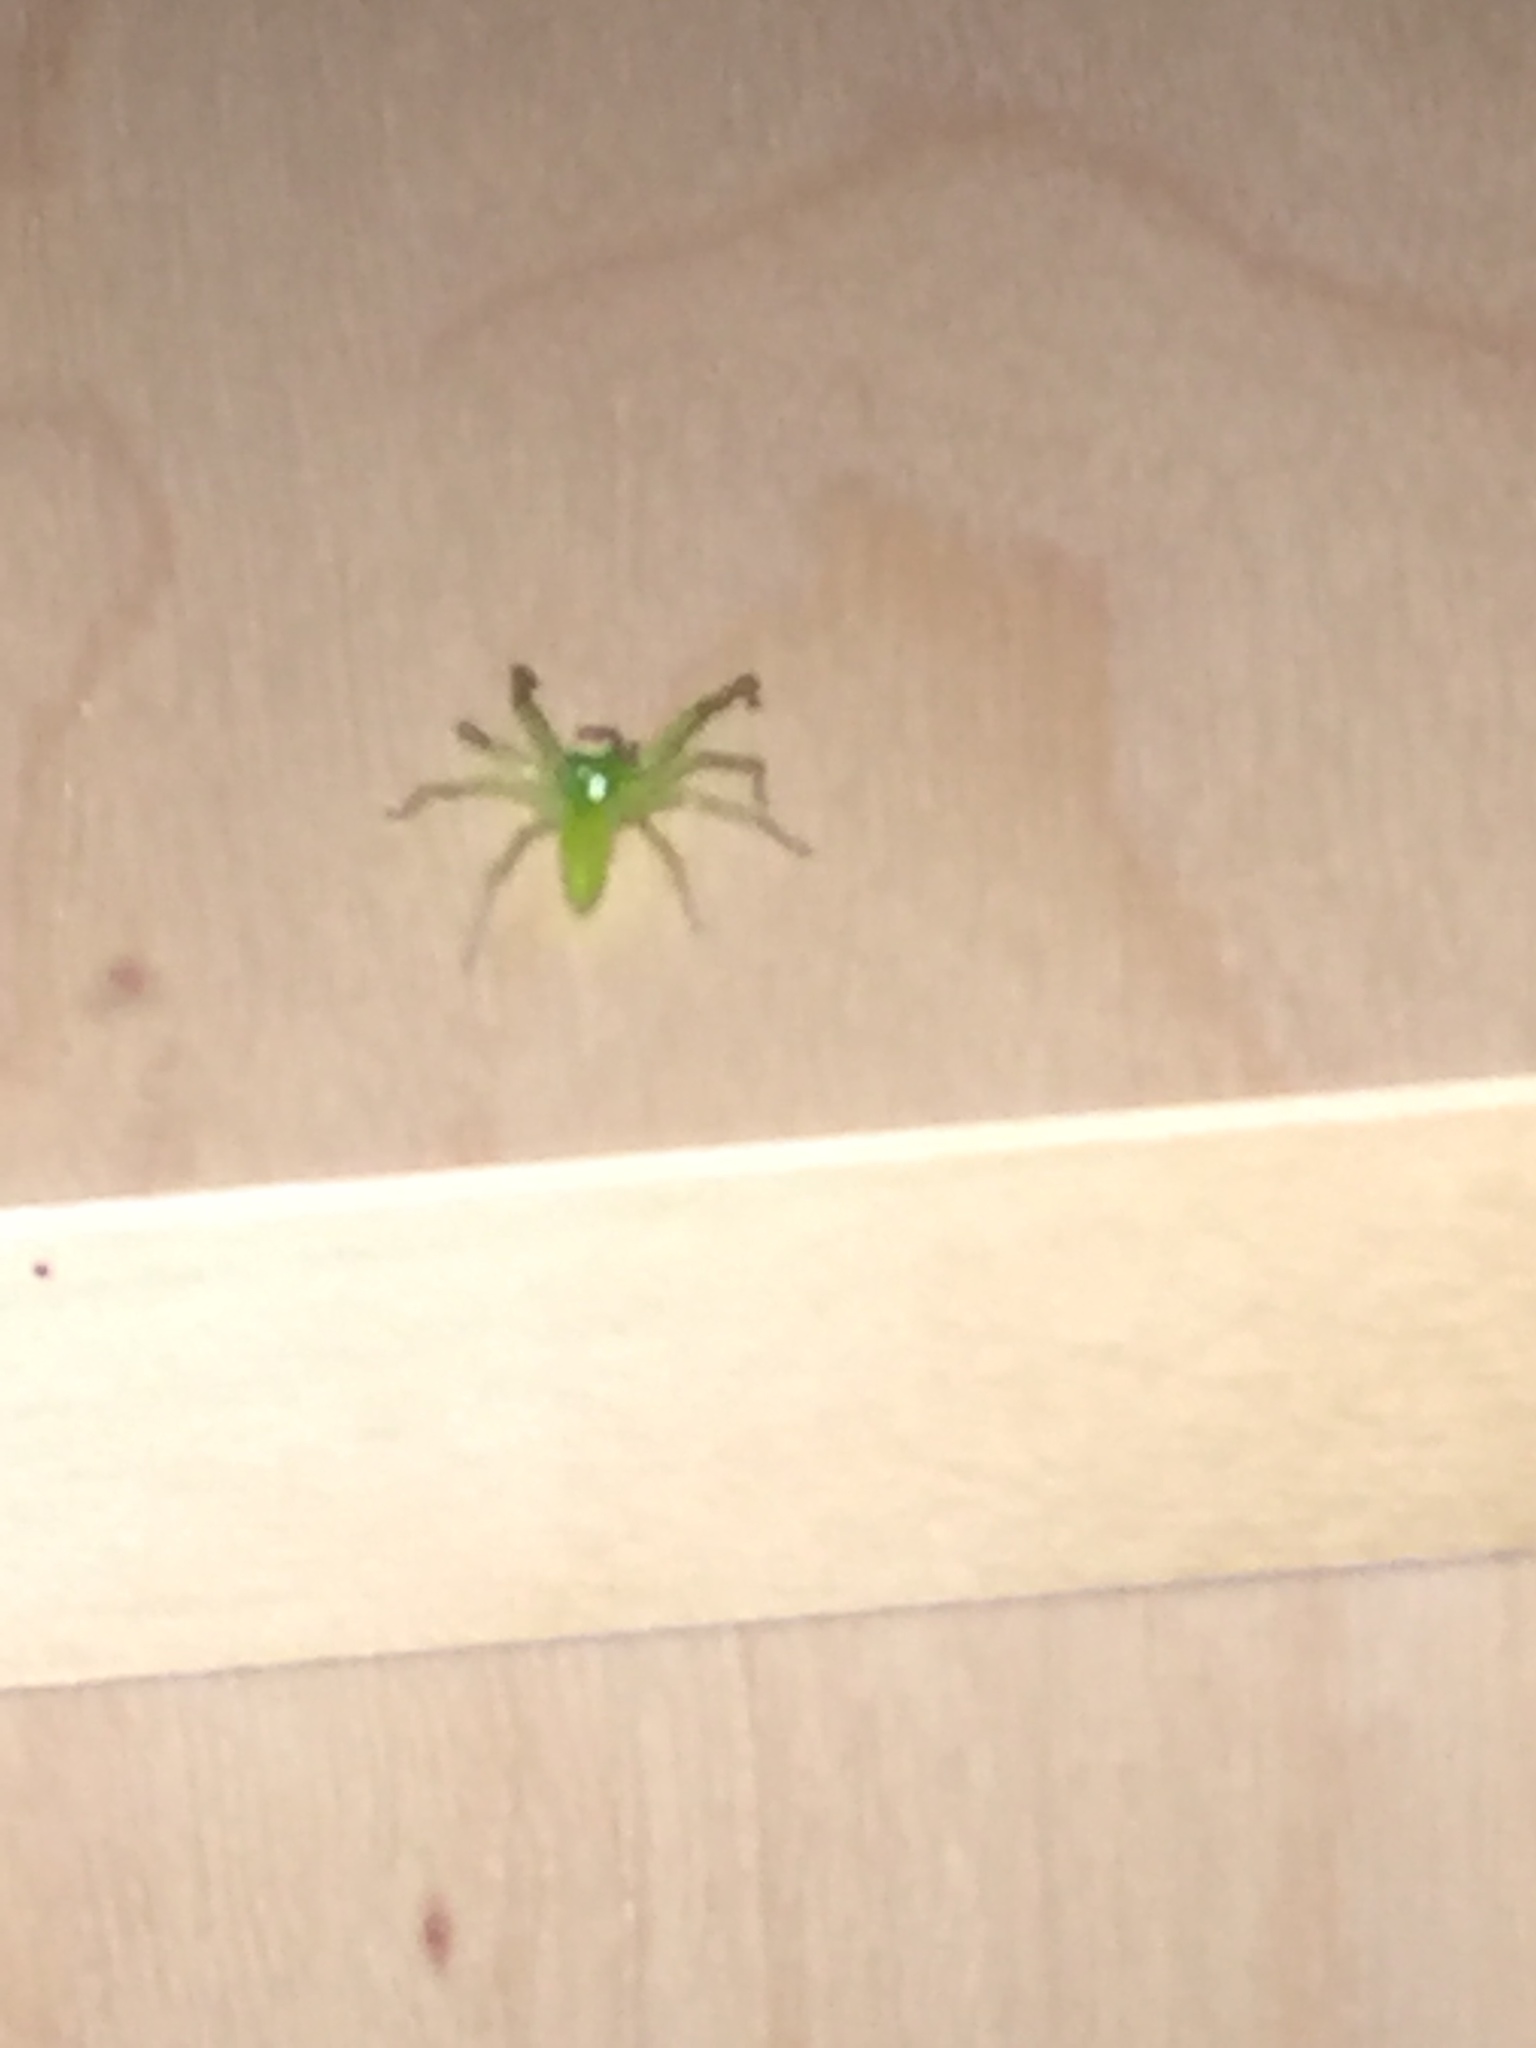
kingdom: Animalia
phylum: Arthropoda
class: Arachnida
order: Araneae
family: Salticidae
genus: Lyssomanes
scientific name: Lyssomanes viridis
